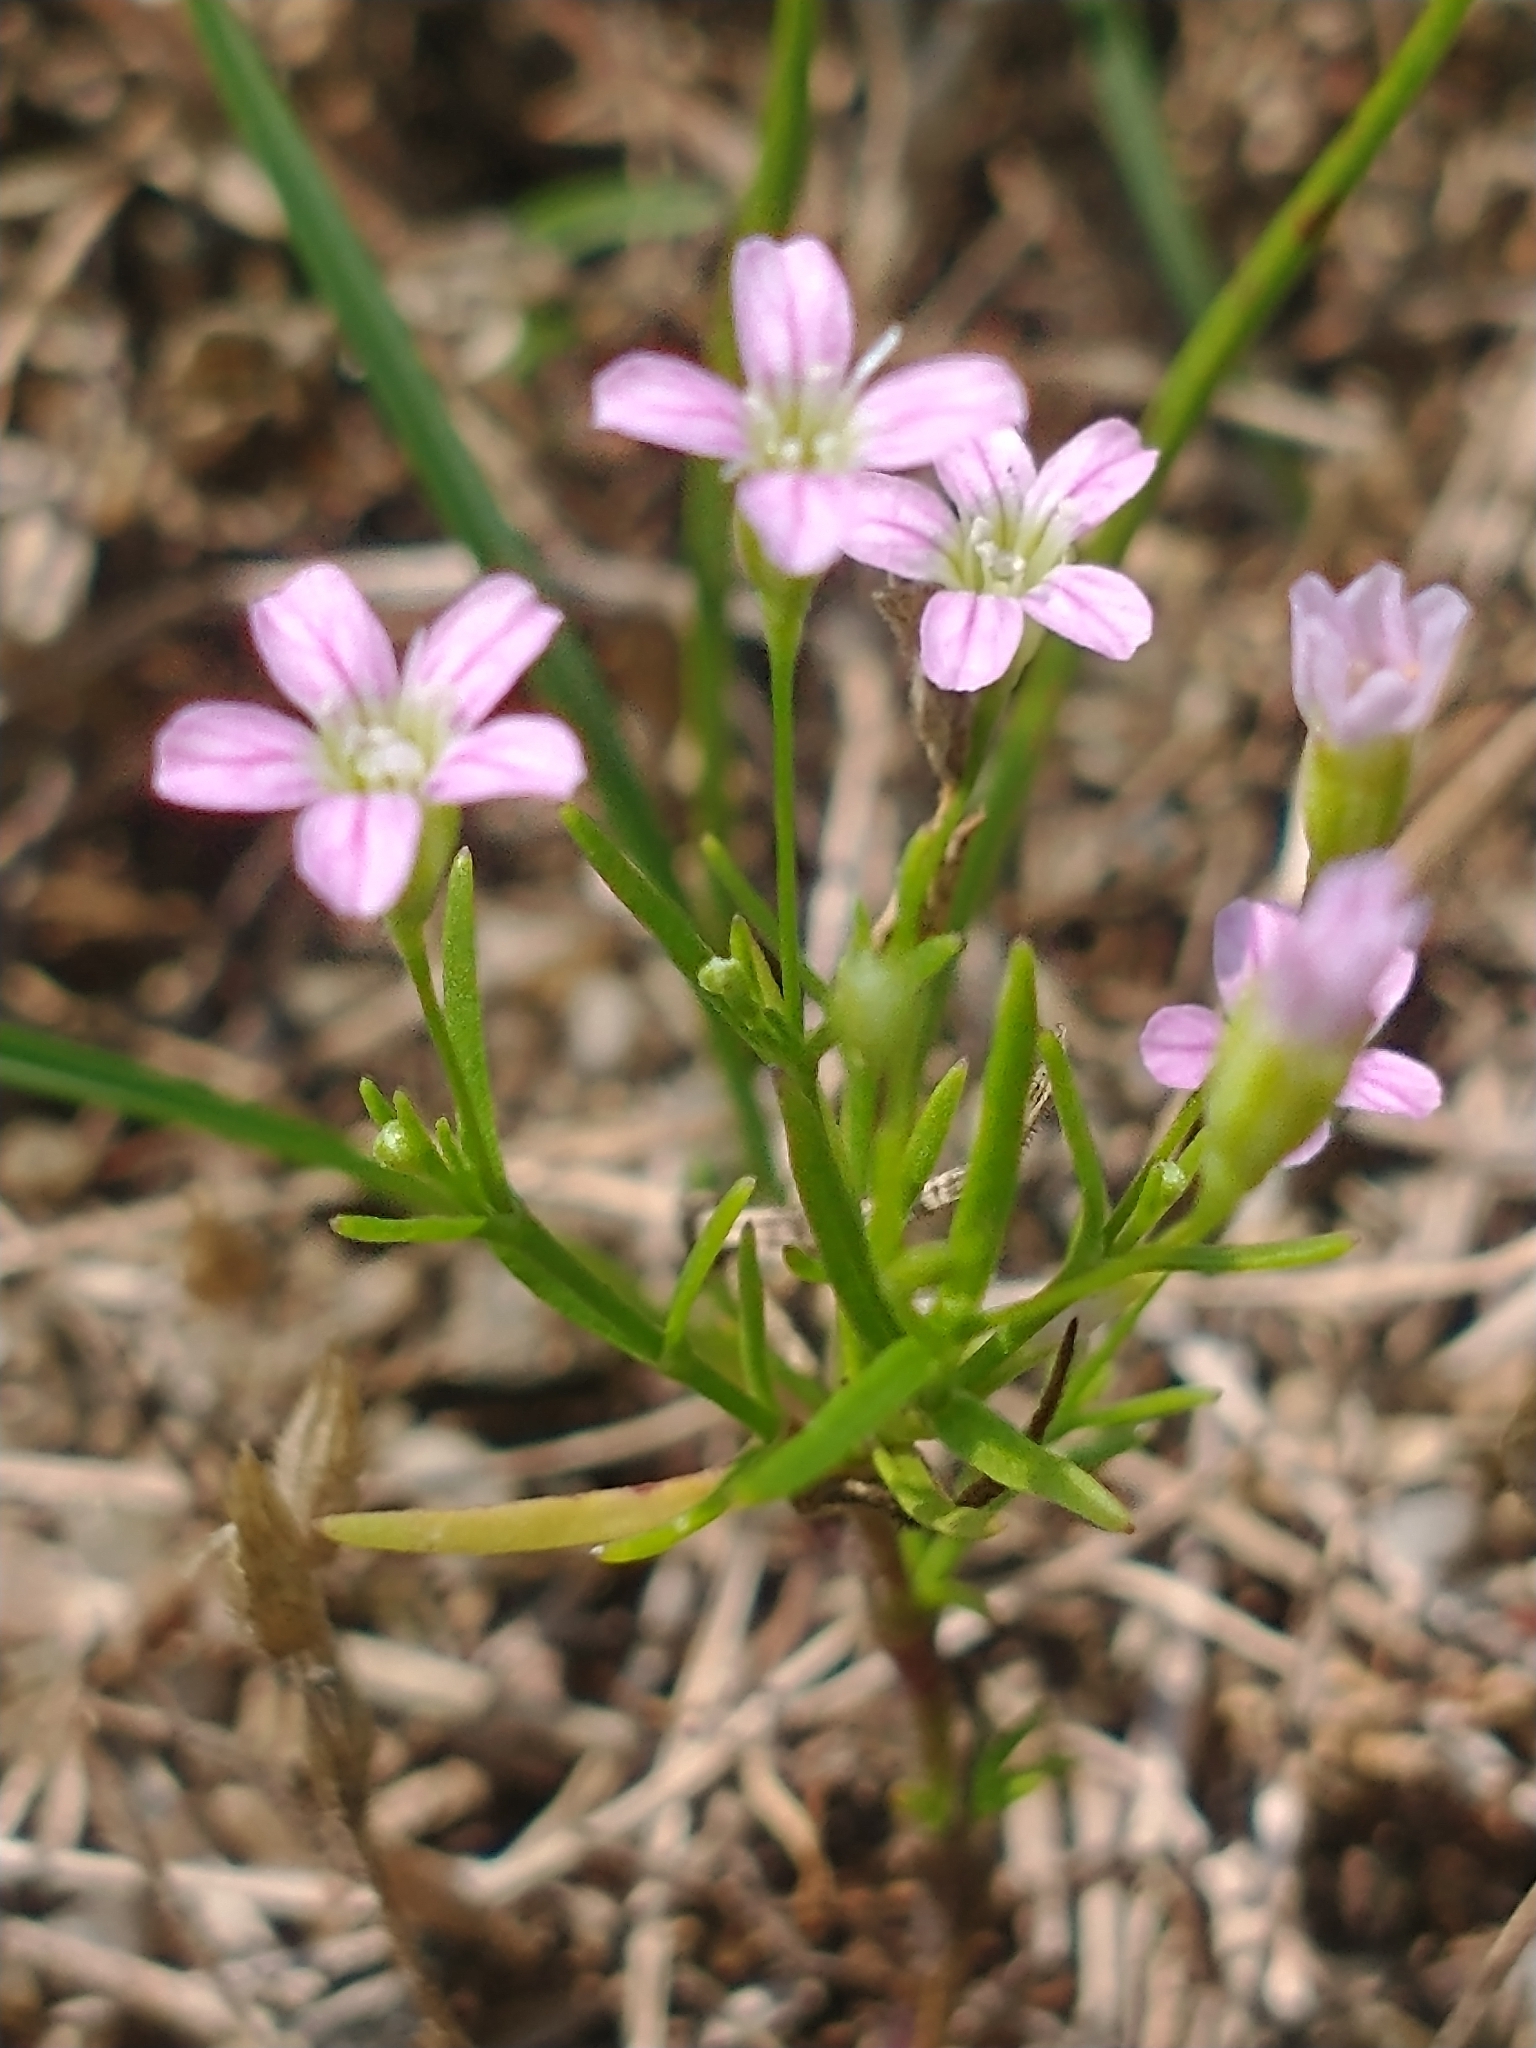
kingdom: Plantae
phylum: Tracheophyta
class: Magnoliopsida
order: Caryophyllales
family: Caryophyllaceae
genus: Psammophiliella
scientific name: Psammophiliella muralis
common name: Cushion baby's-breath
